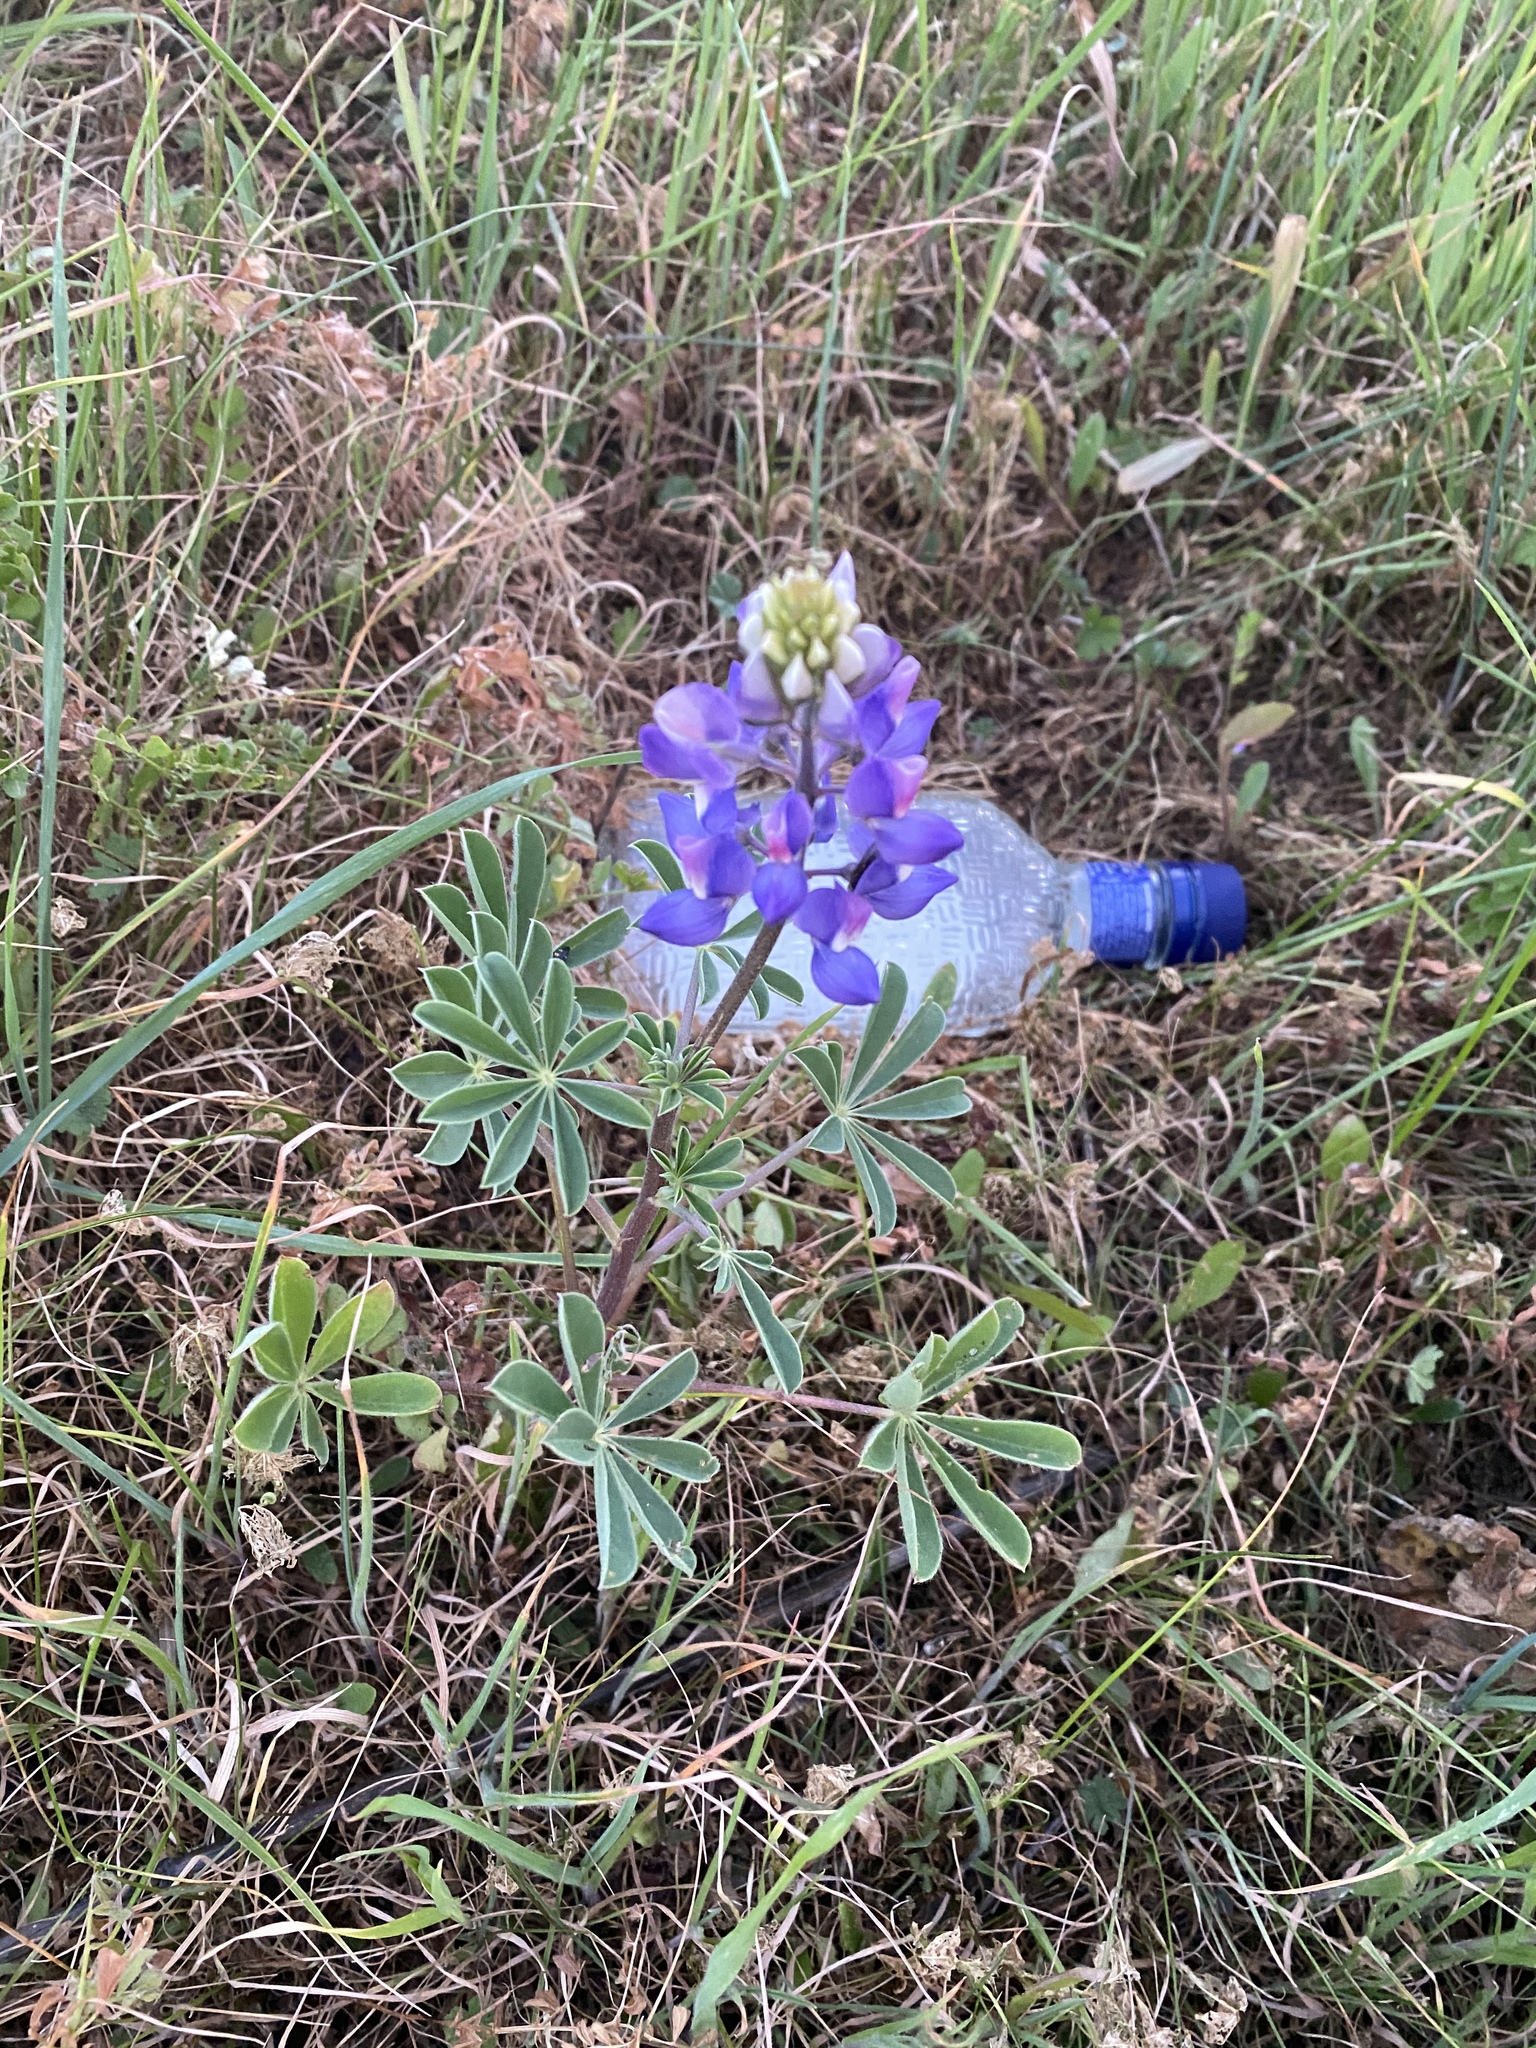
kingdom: Plantae
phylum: Tracheophyta
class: Magnoliopsida
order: Fabales
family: Fabaceae
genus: Lupinus
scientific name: Lupinus succulentus
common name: Arroyo lupine
